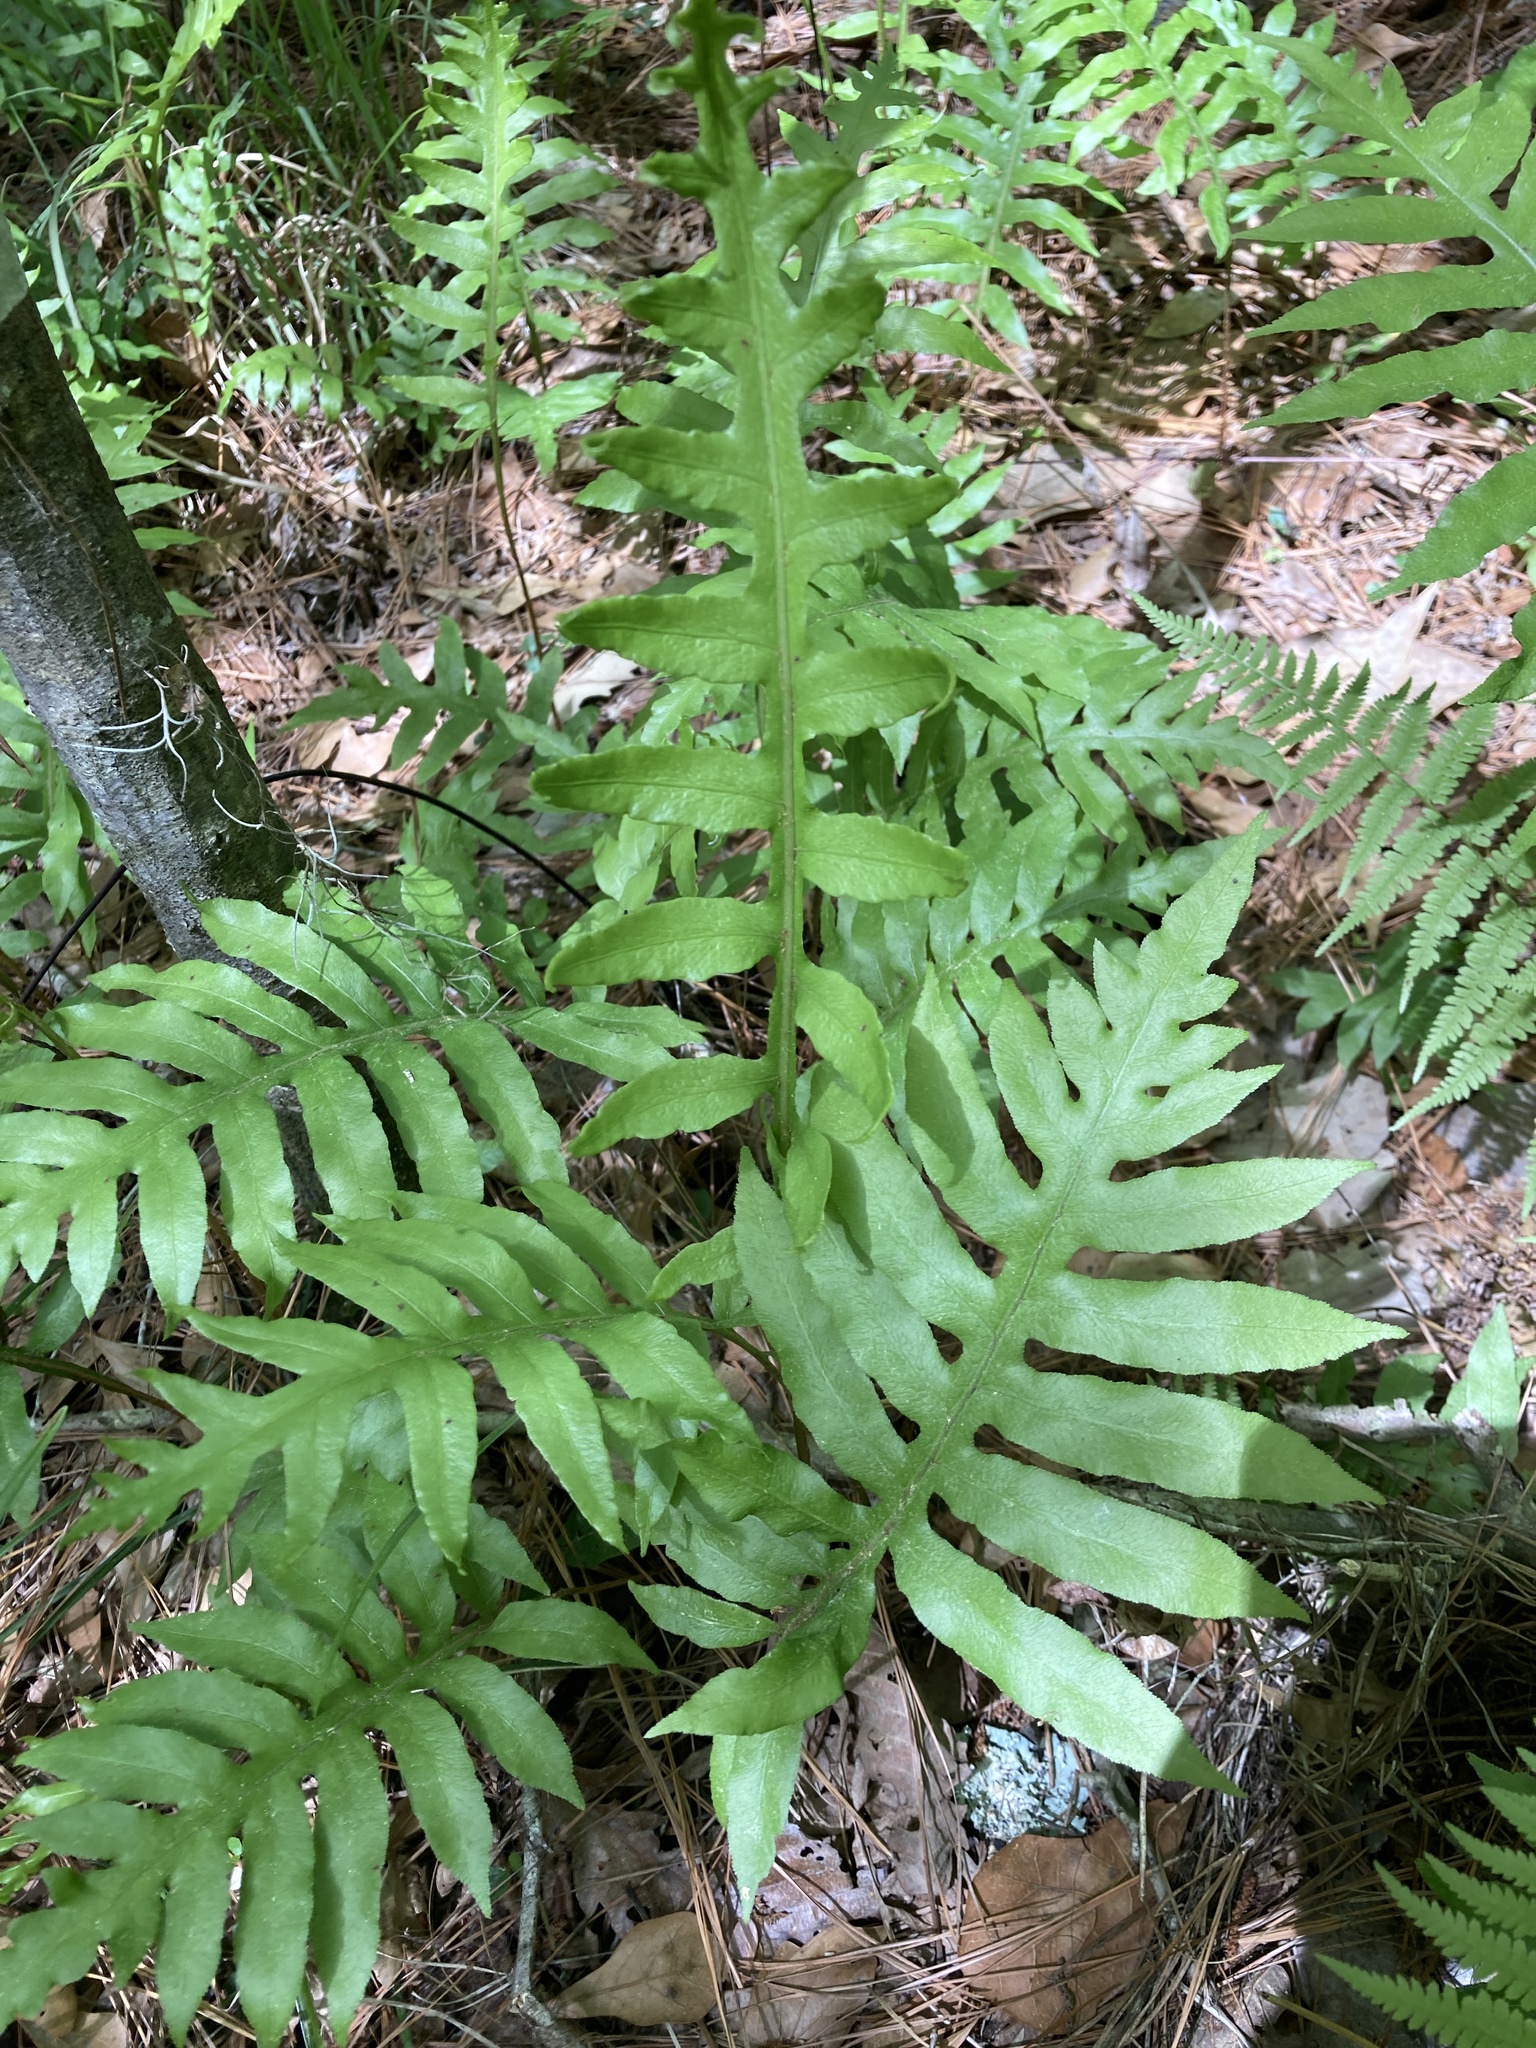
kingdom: Plantae
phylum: Tracheophyta
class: Polypodiopsida
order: Polypodiales
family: Blechnaceae
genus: Lorinseria
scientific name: Lorinseria areolata
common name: Dwarf chain fern
